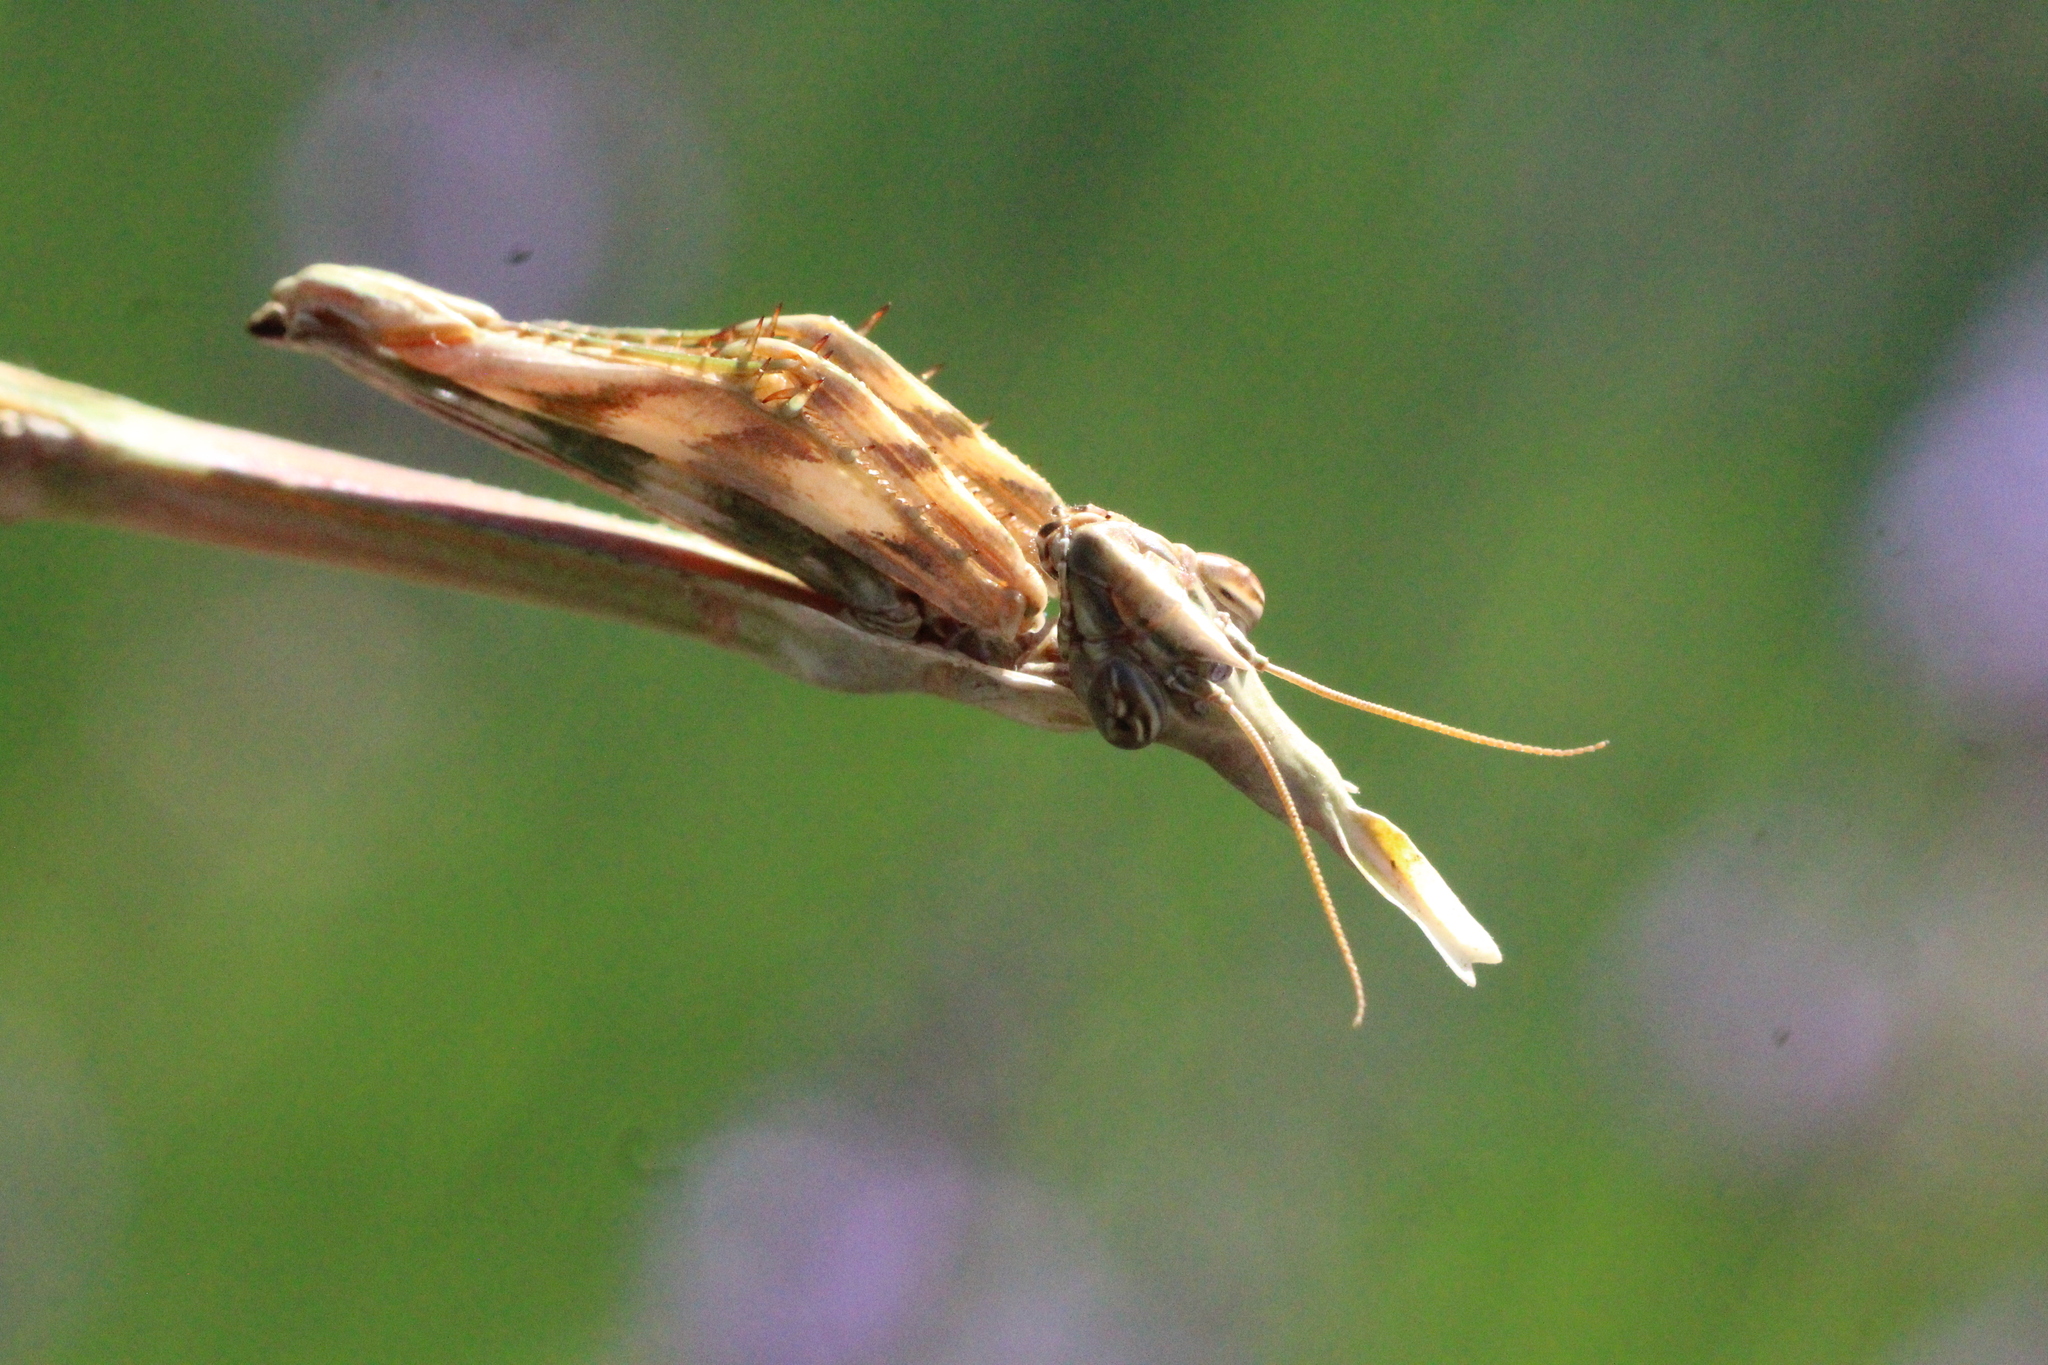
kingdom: Animalia
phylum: Arthropoda
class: Insecta
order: Mantodea
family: Empusidae
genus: Empusa
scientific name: Empusa pennata
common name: Conehead mantis
